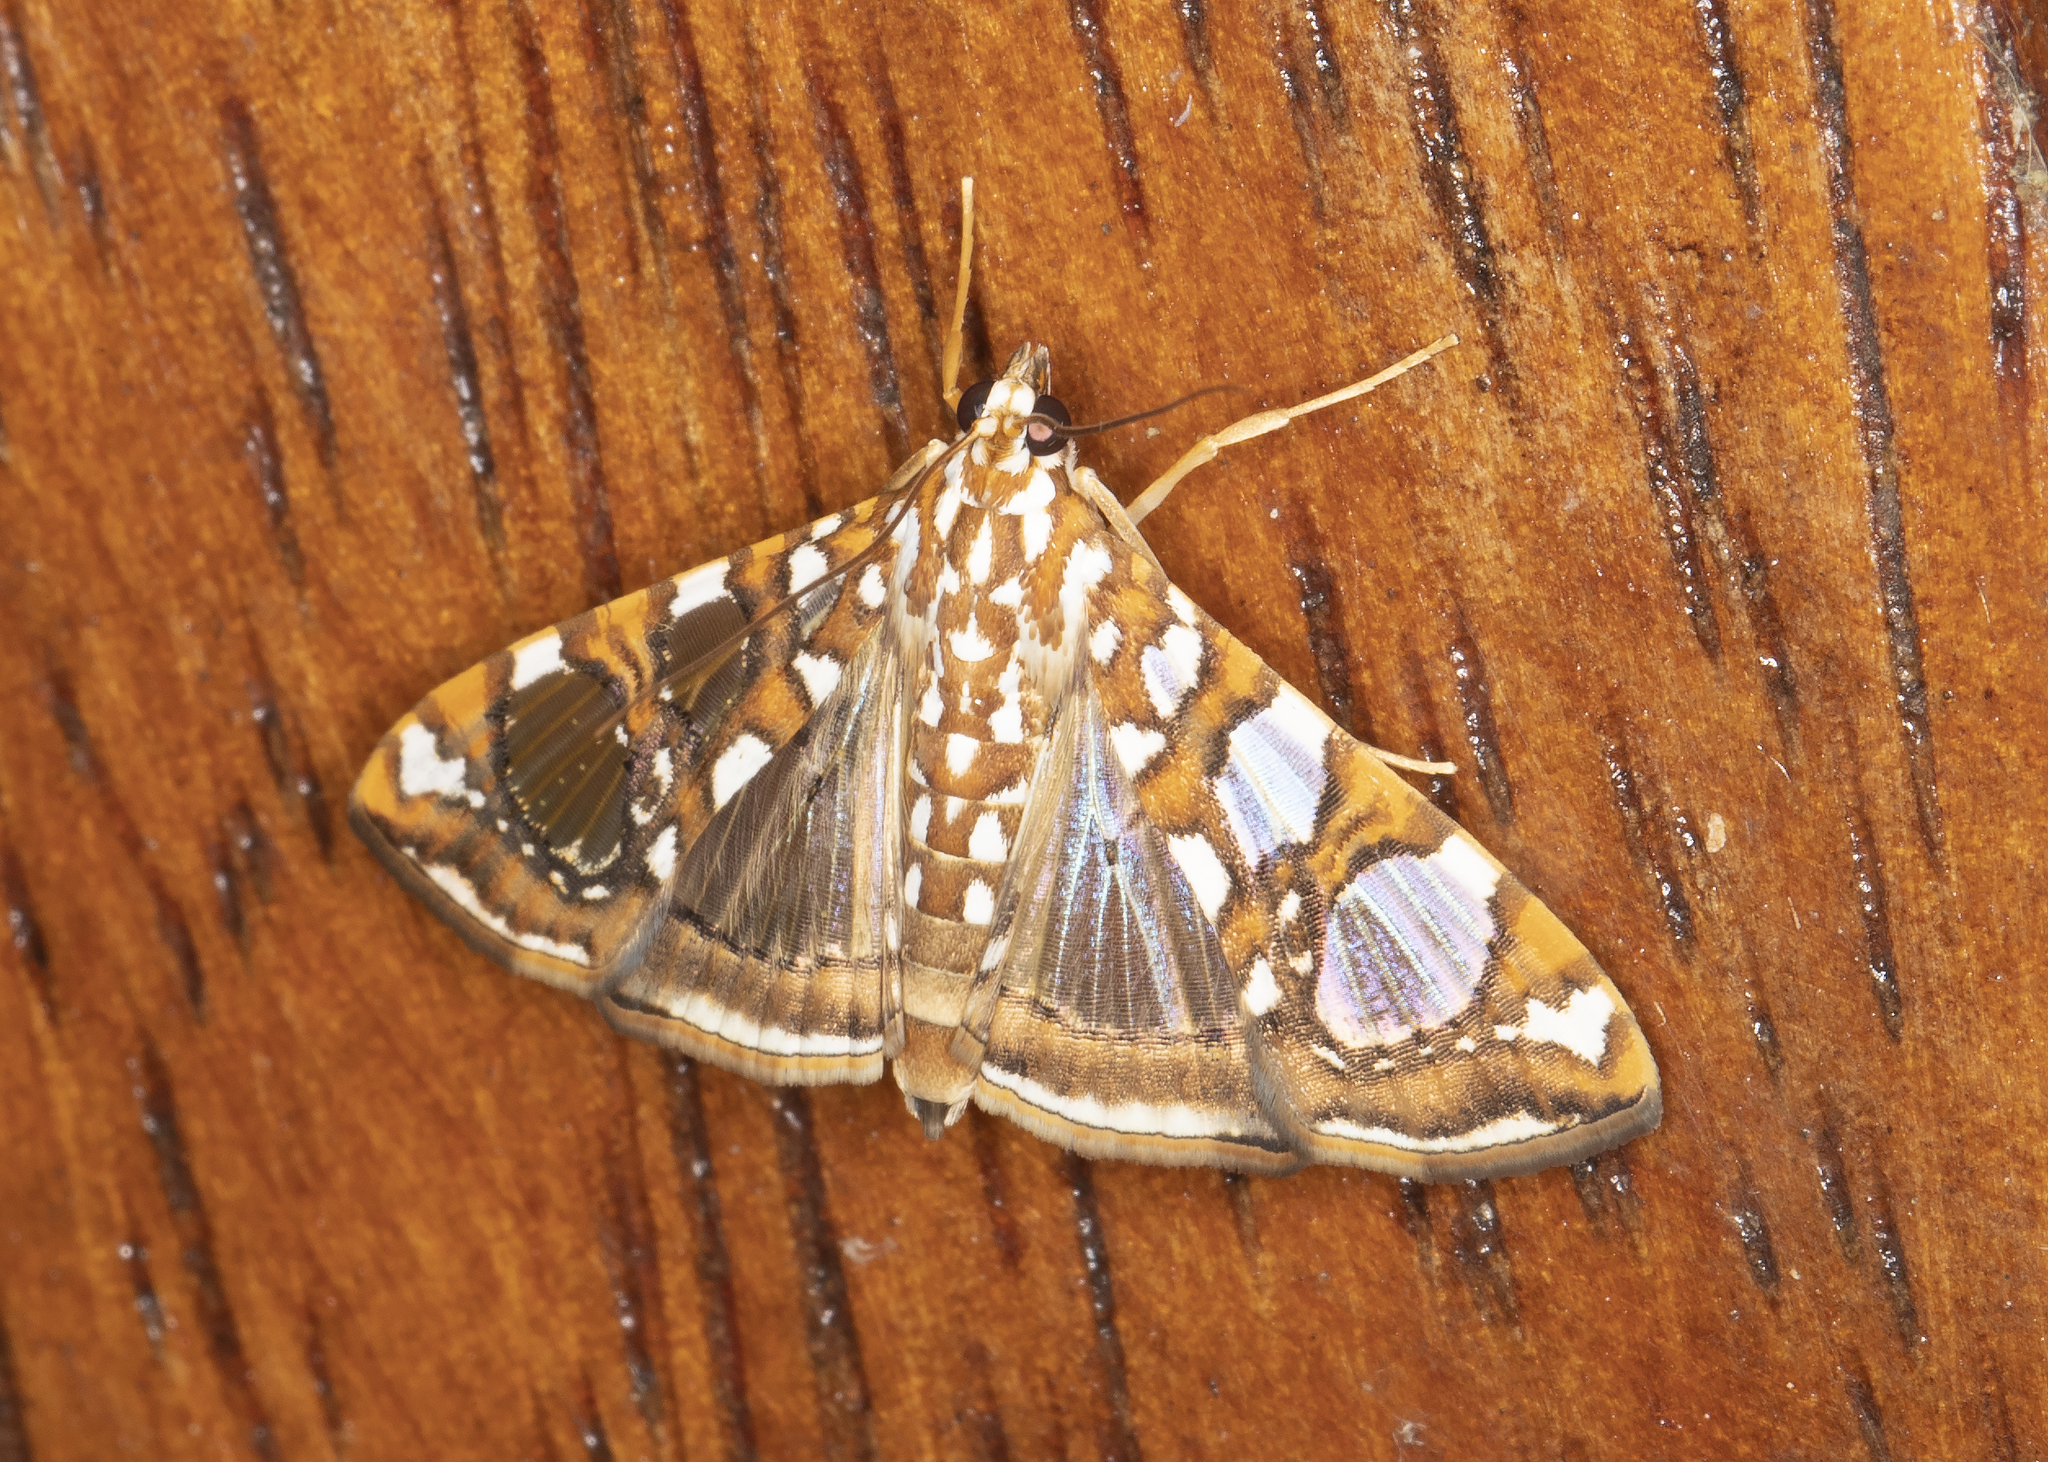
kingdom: Animalia
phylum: Arthropoda
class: Insecta
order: Lepidoptera
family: Crambidae
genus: Glyphodes
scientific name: Glyphodes sibillalis
